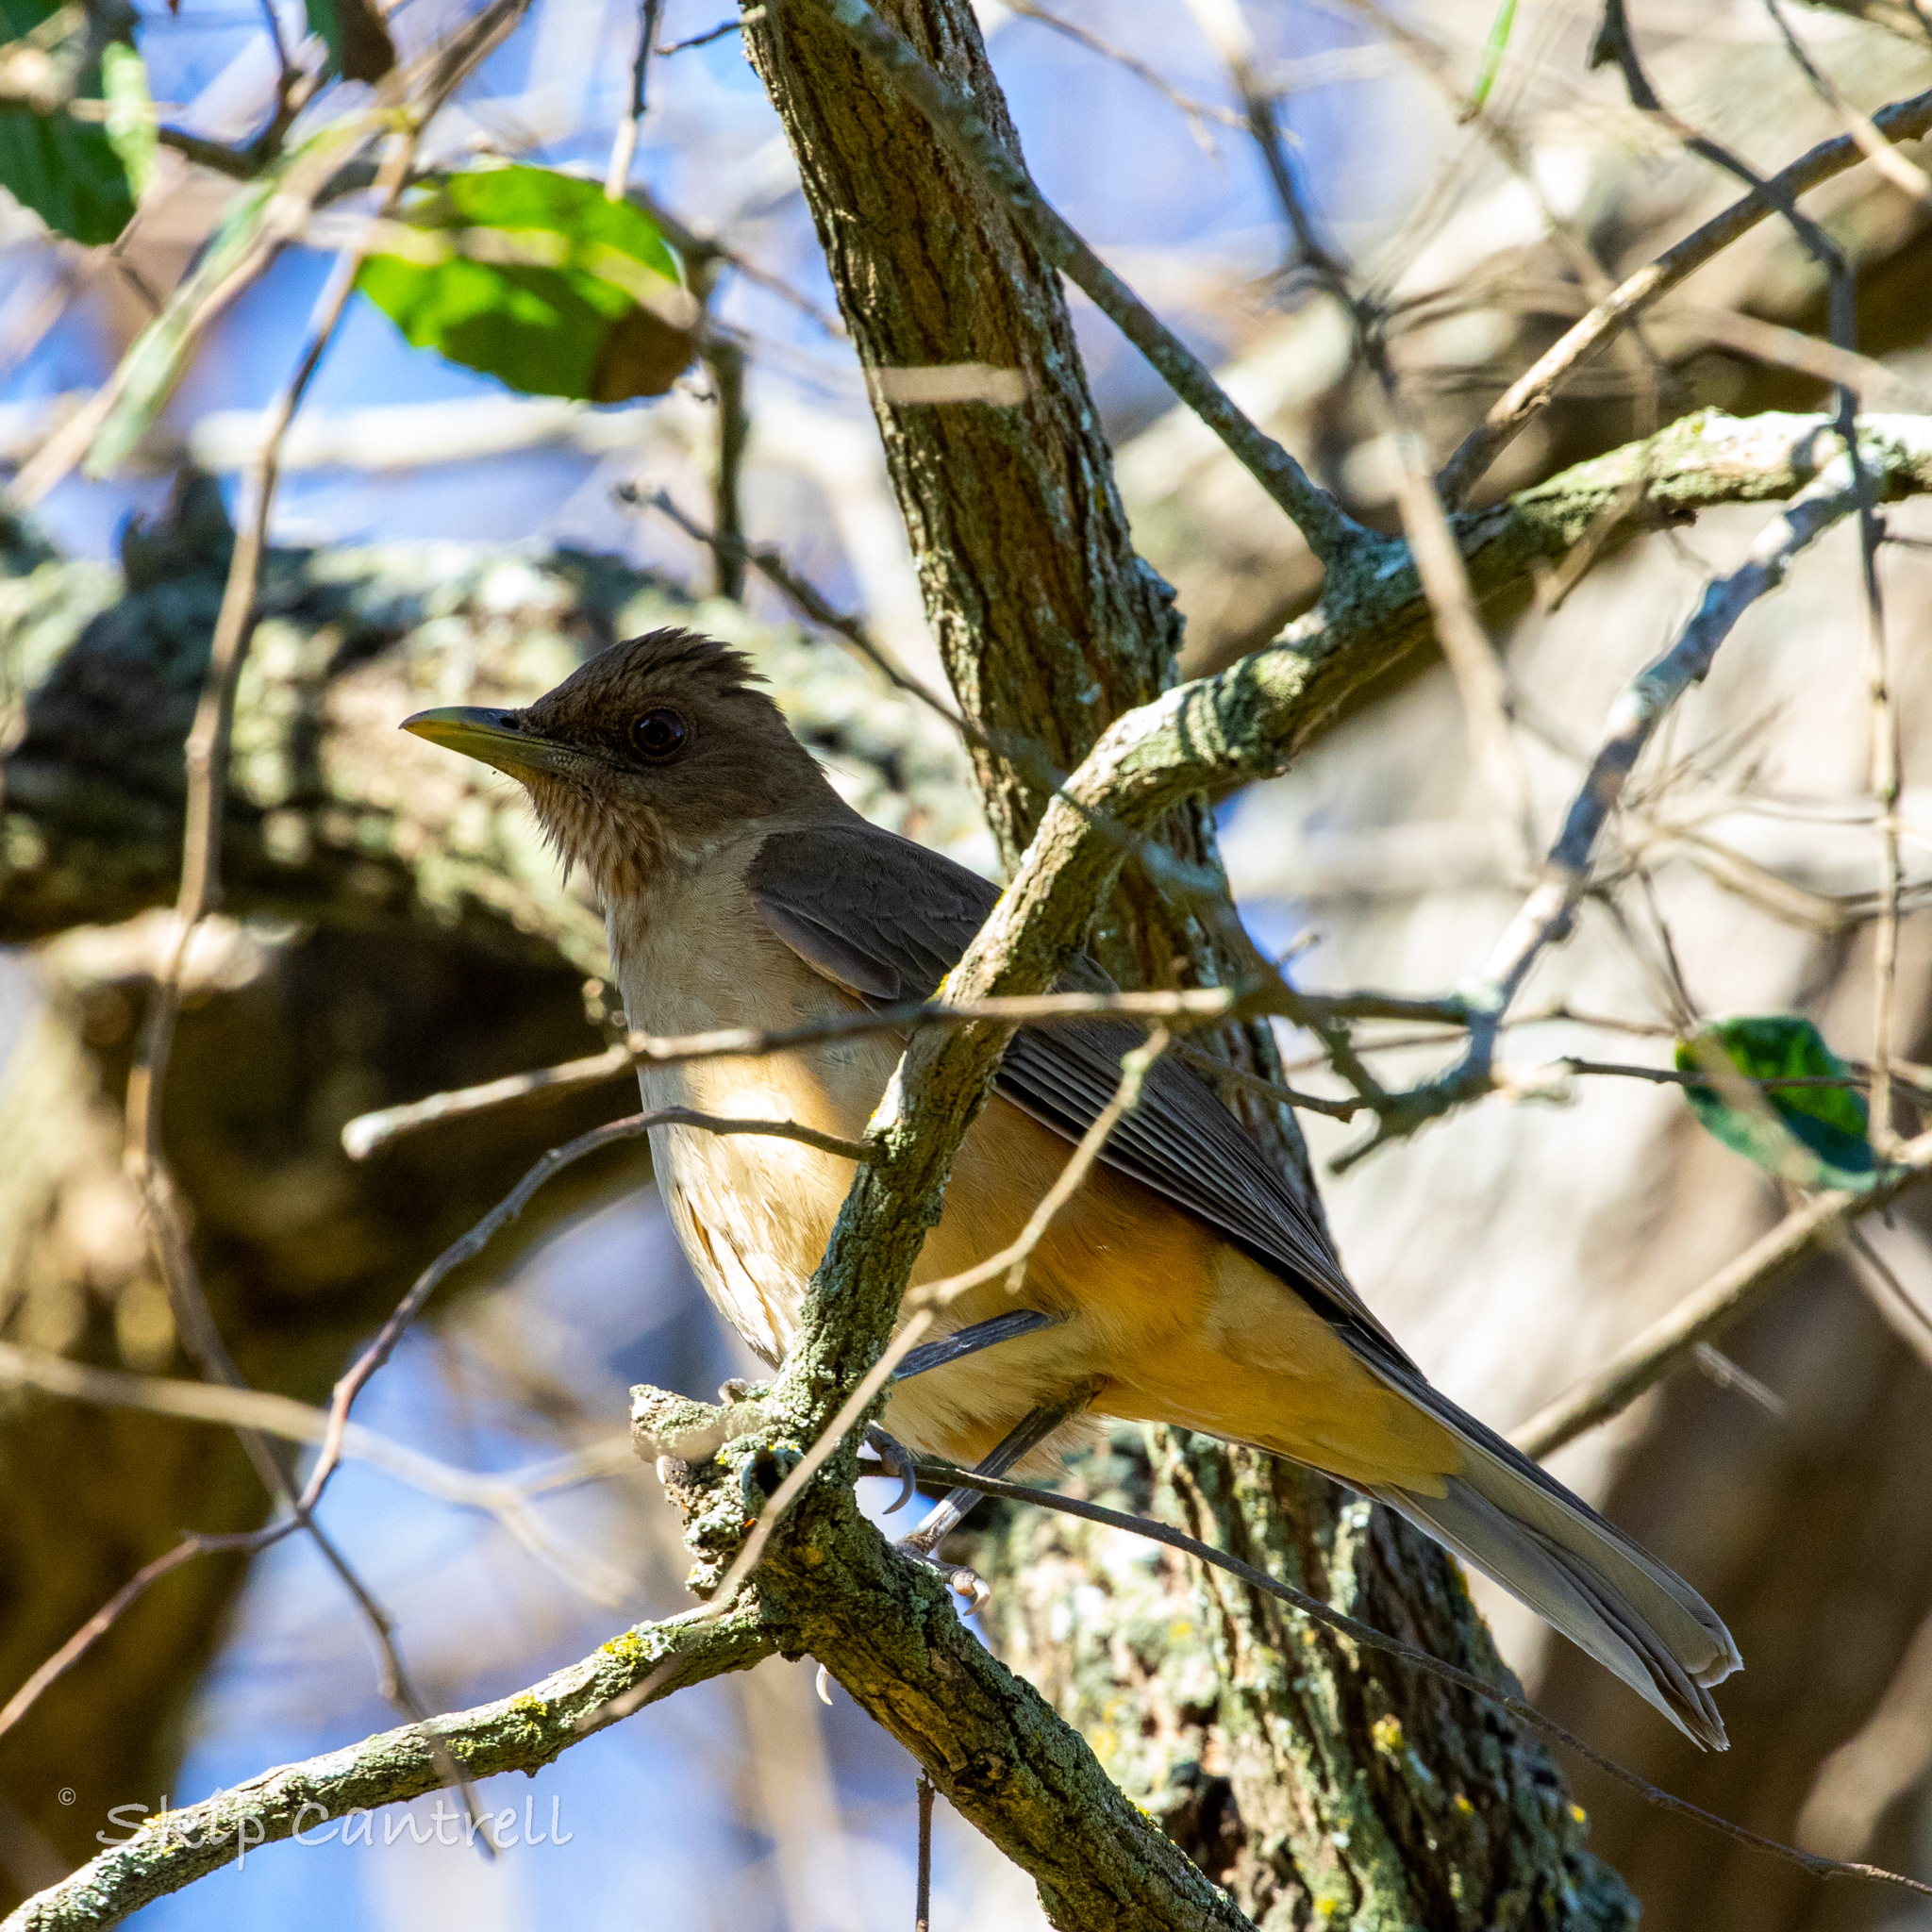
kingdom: Animalia
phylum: Chordata
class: Aves
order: Passeriformes
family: Turdidae
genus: Turdus
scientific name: Turdus grayi
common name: Clay-colored thrush
